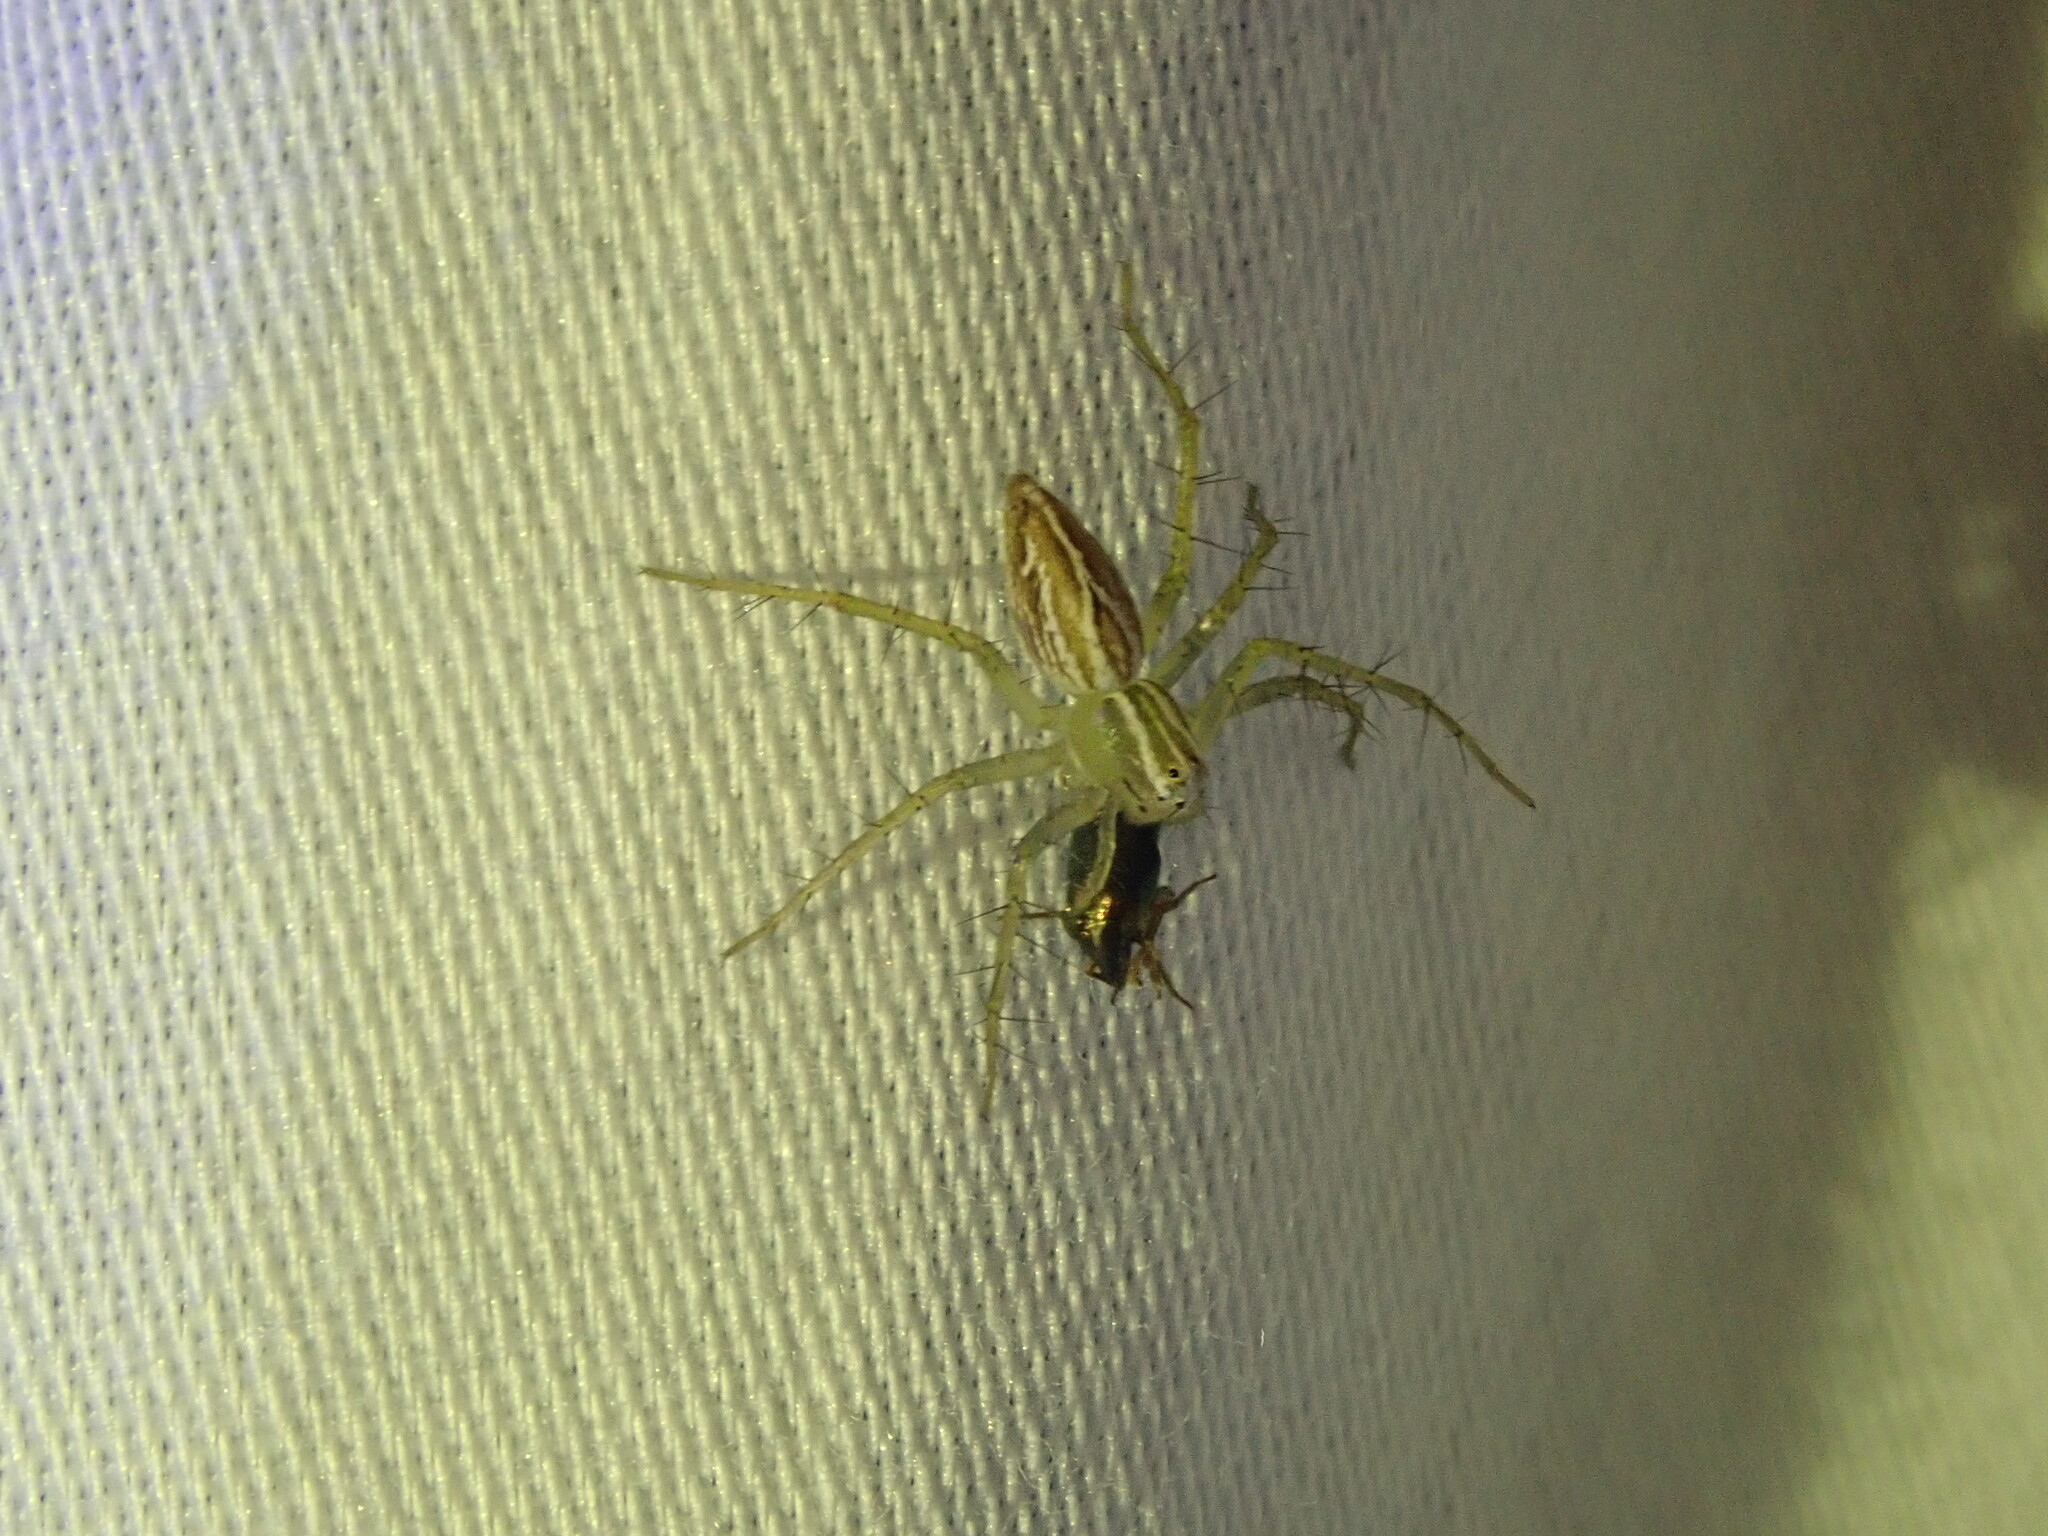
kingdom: Animalia
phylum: Arthropoda
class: Arachnida
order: Araneae
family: Oxyopidae
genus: Oxyopes
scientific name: Oxyopes salticus
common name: Lynx spiders
